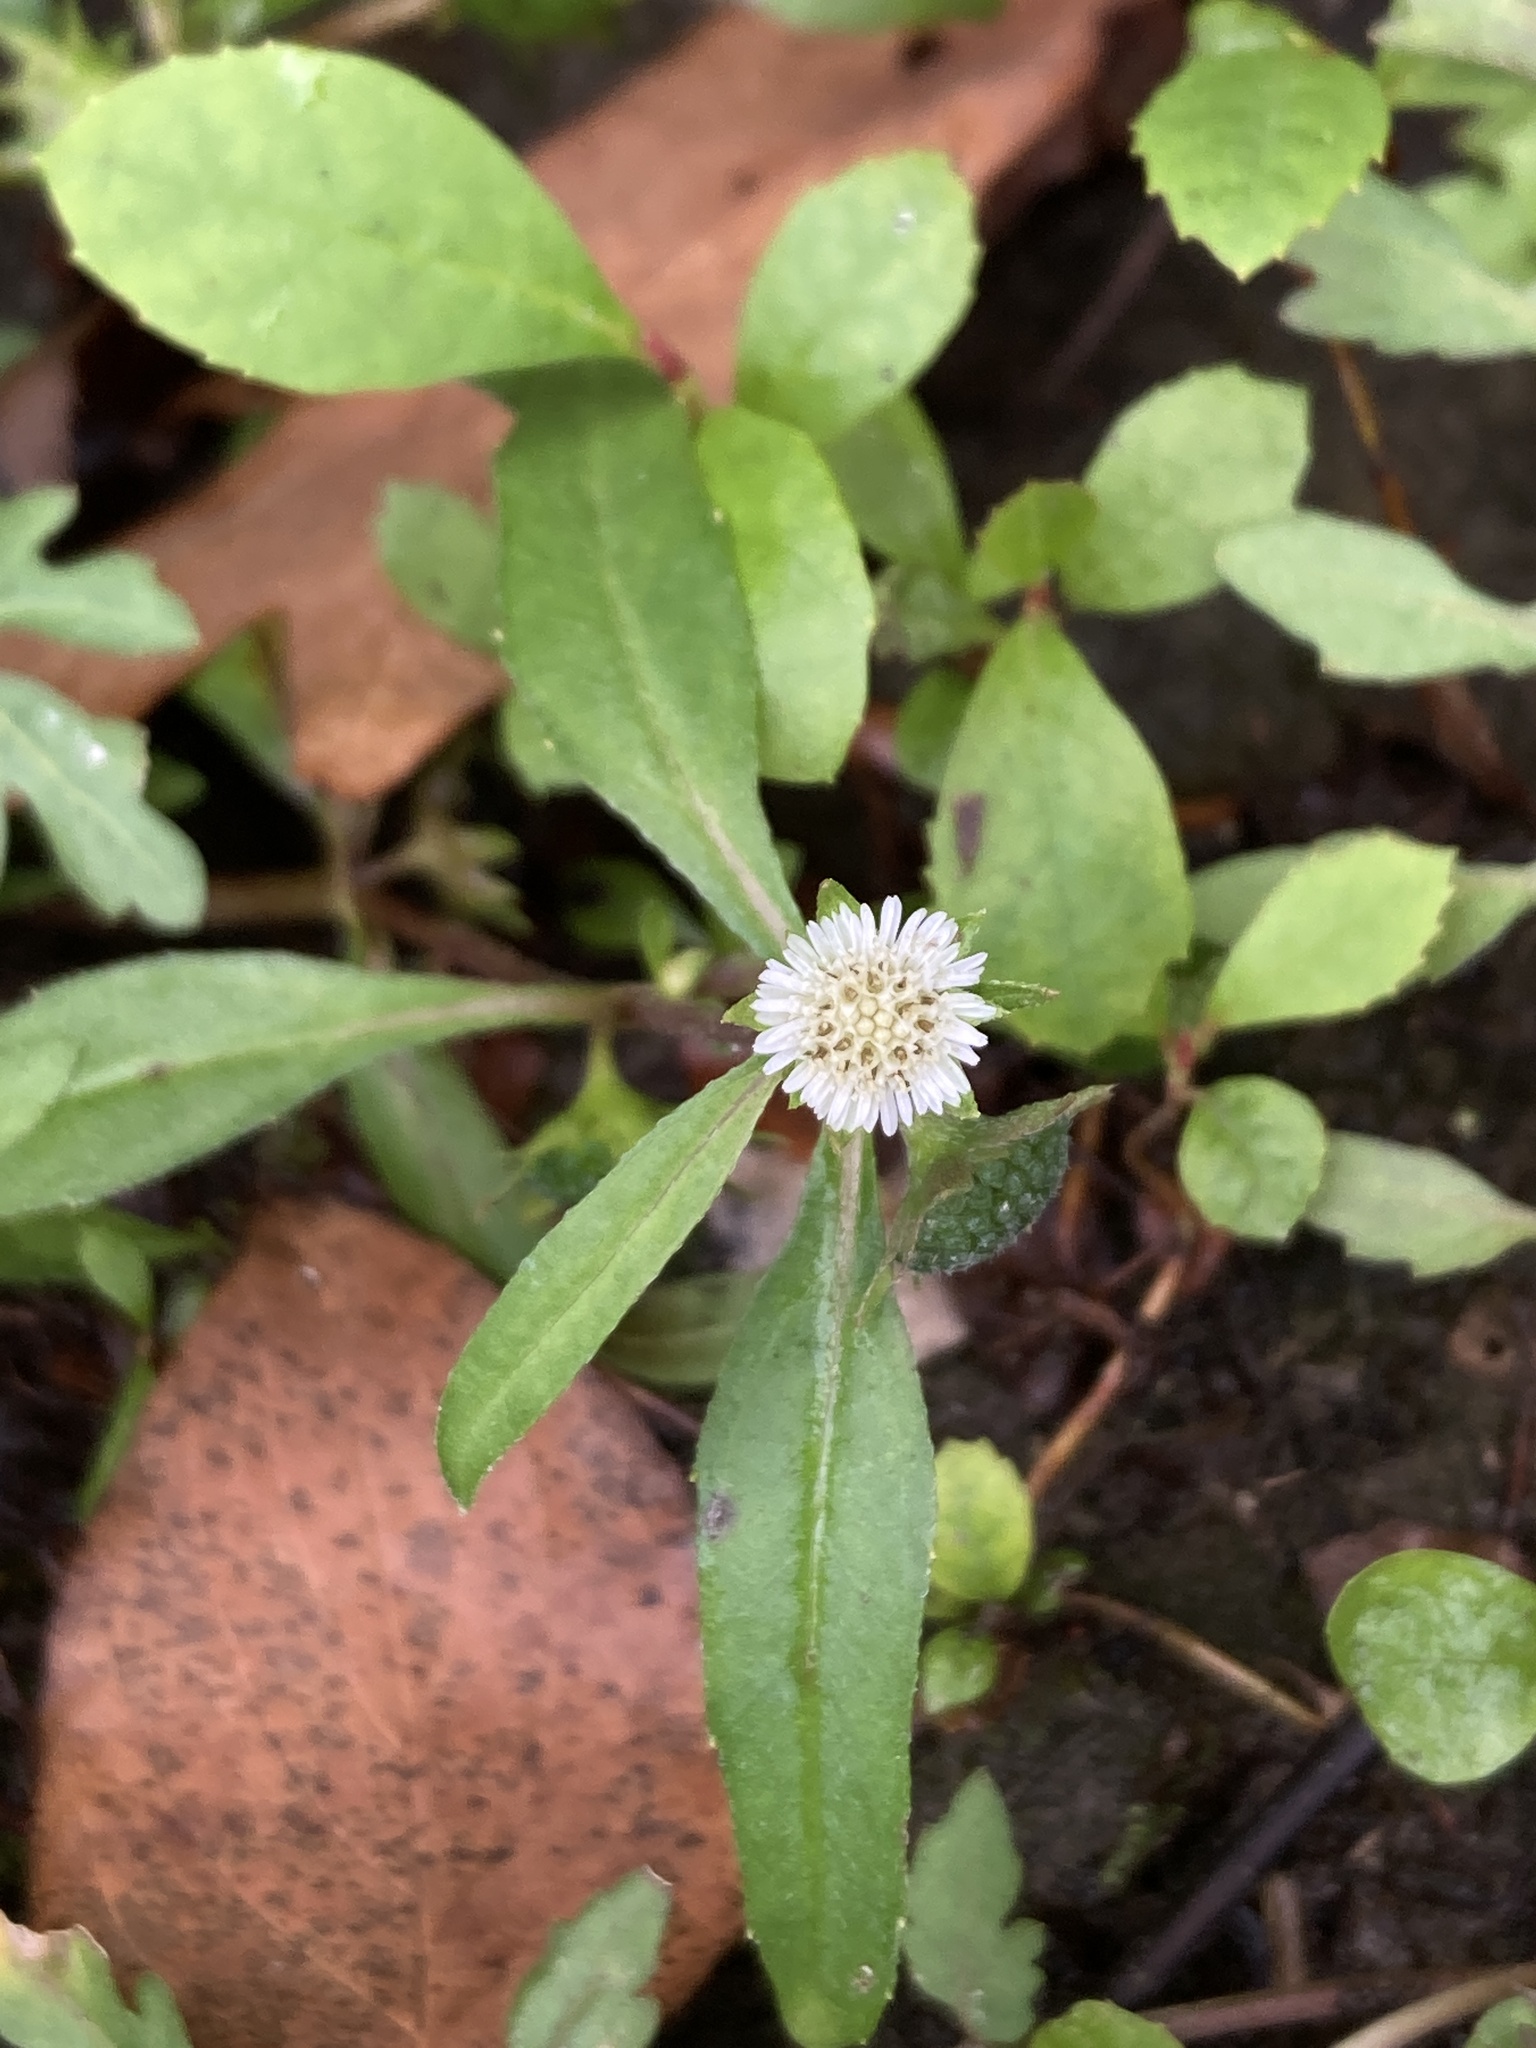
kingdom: Plantae
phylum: Tracheophyta
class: Magnoliopsida
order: Asterales
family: Asteraceae
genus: Eclipta
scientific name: Eclipta prostrata
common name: False daisy
